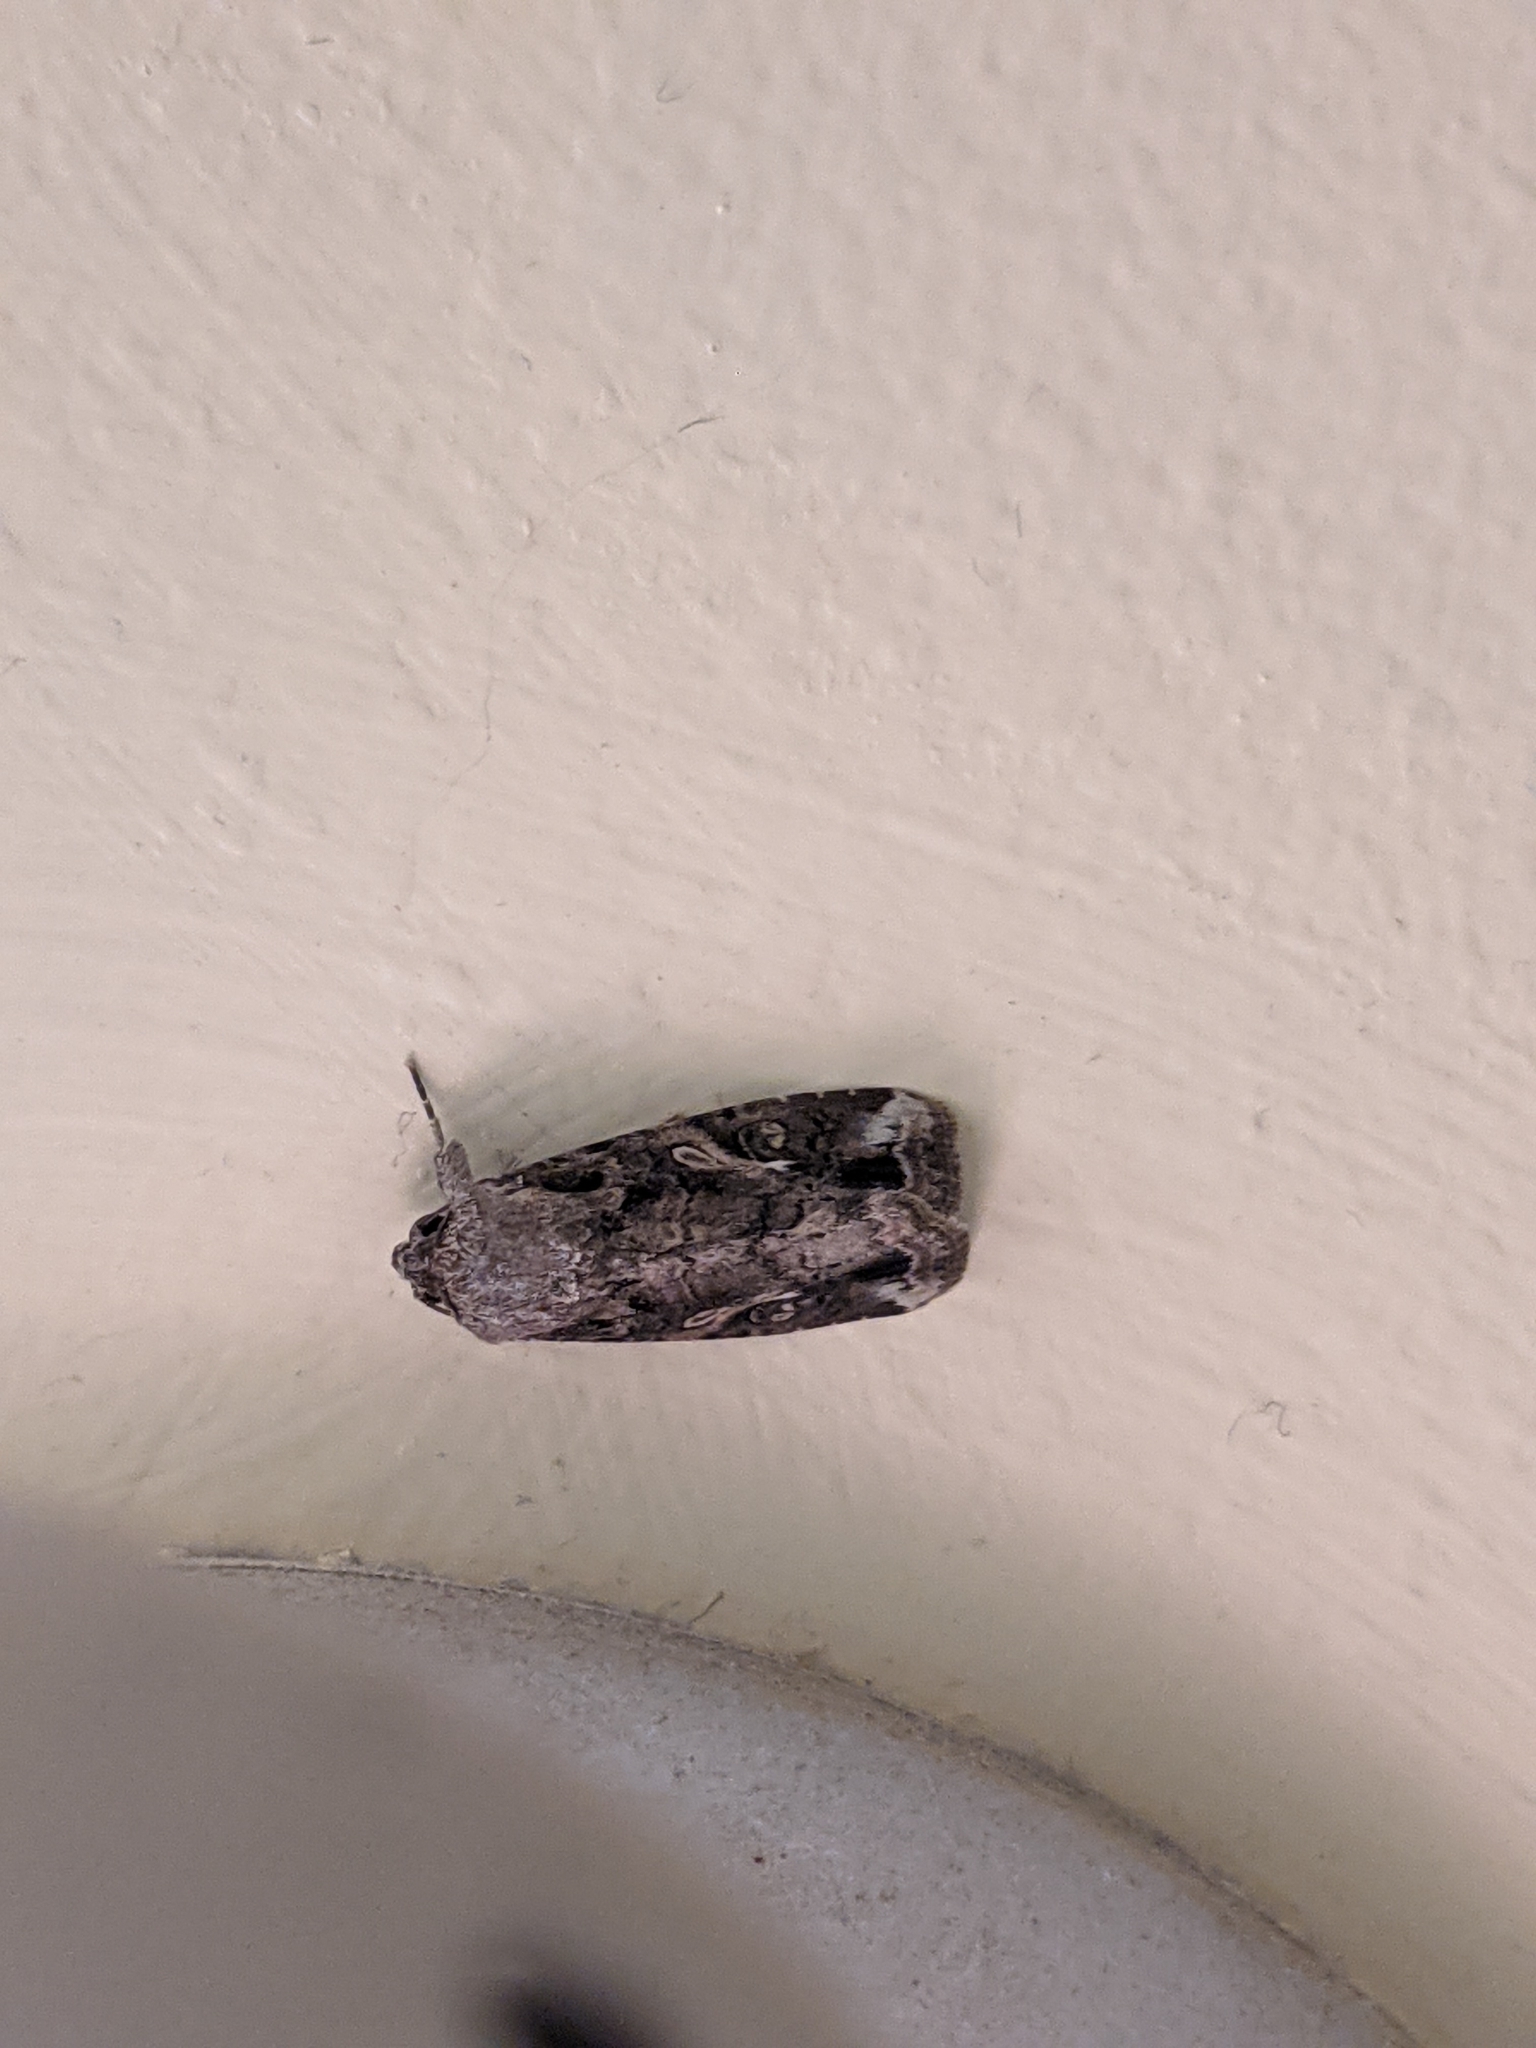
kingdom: Animalia
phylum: Arthropoda
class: Insecta
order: Lepidoptera
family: Noctuidae
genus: Spodoptera
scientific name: Spodoptera frugiperda
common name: Fall armyworm
